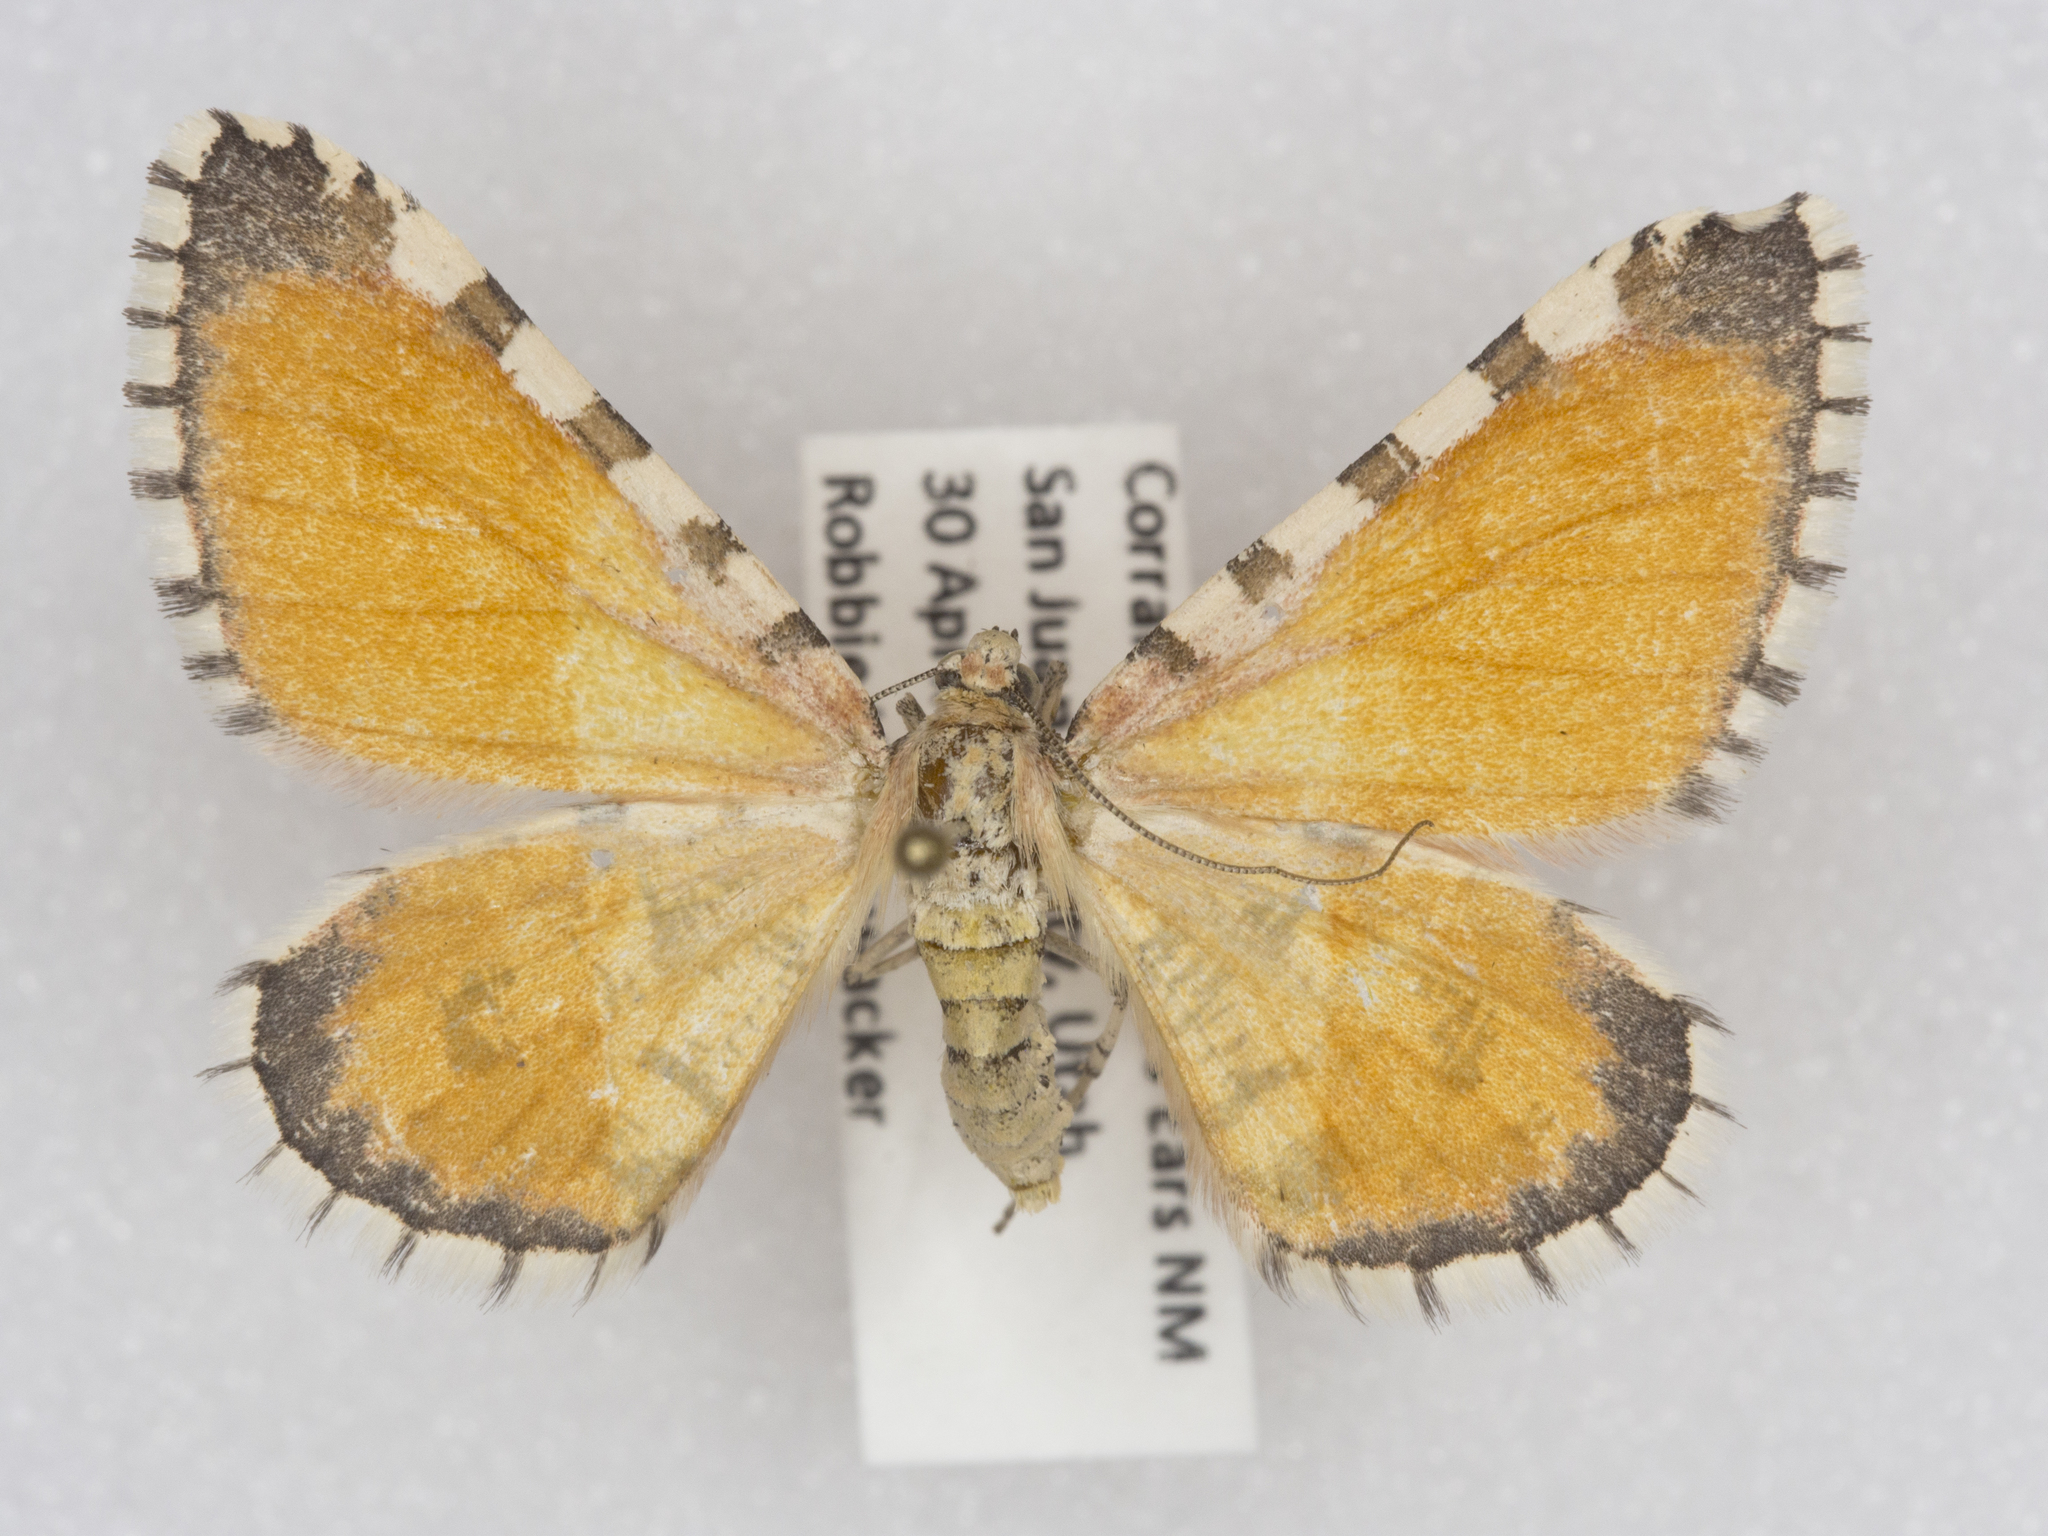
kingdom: Animalia
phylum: Arthropoda
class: Insecta
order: Lepidoptera
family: Geometridae
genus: Stamnodes
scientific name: Stamnodes tessellata
